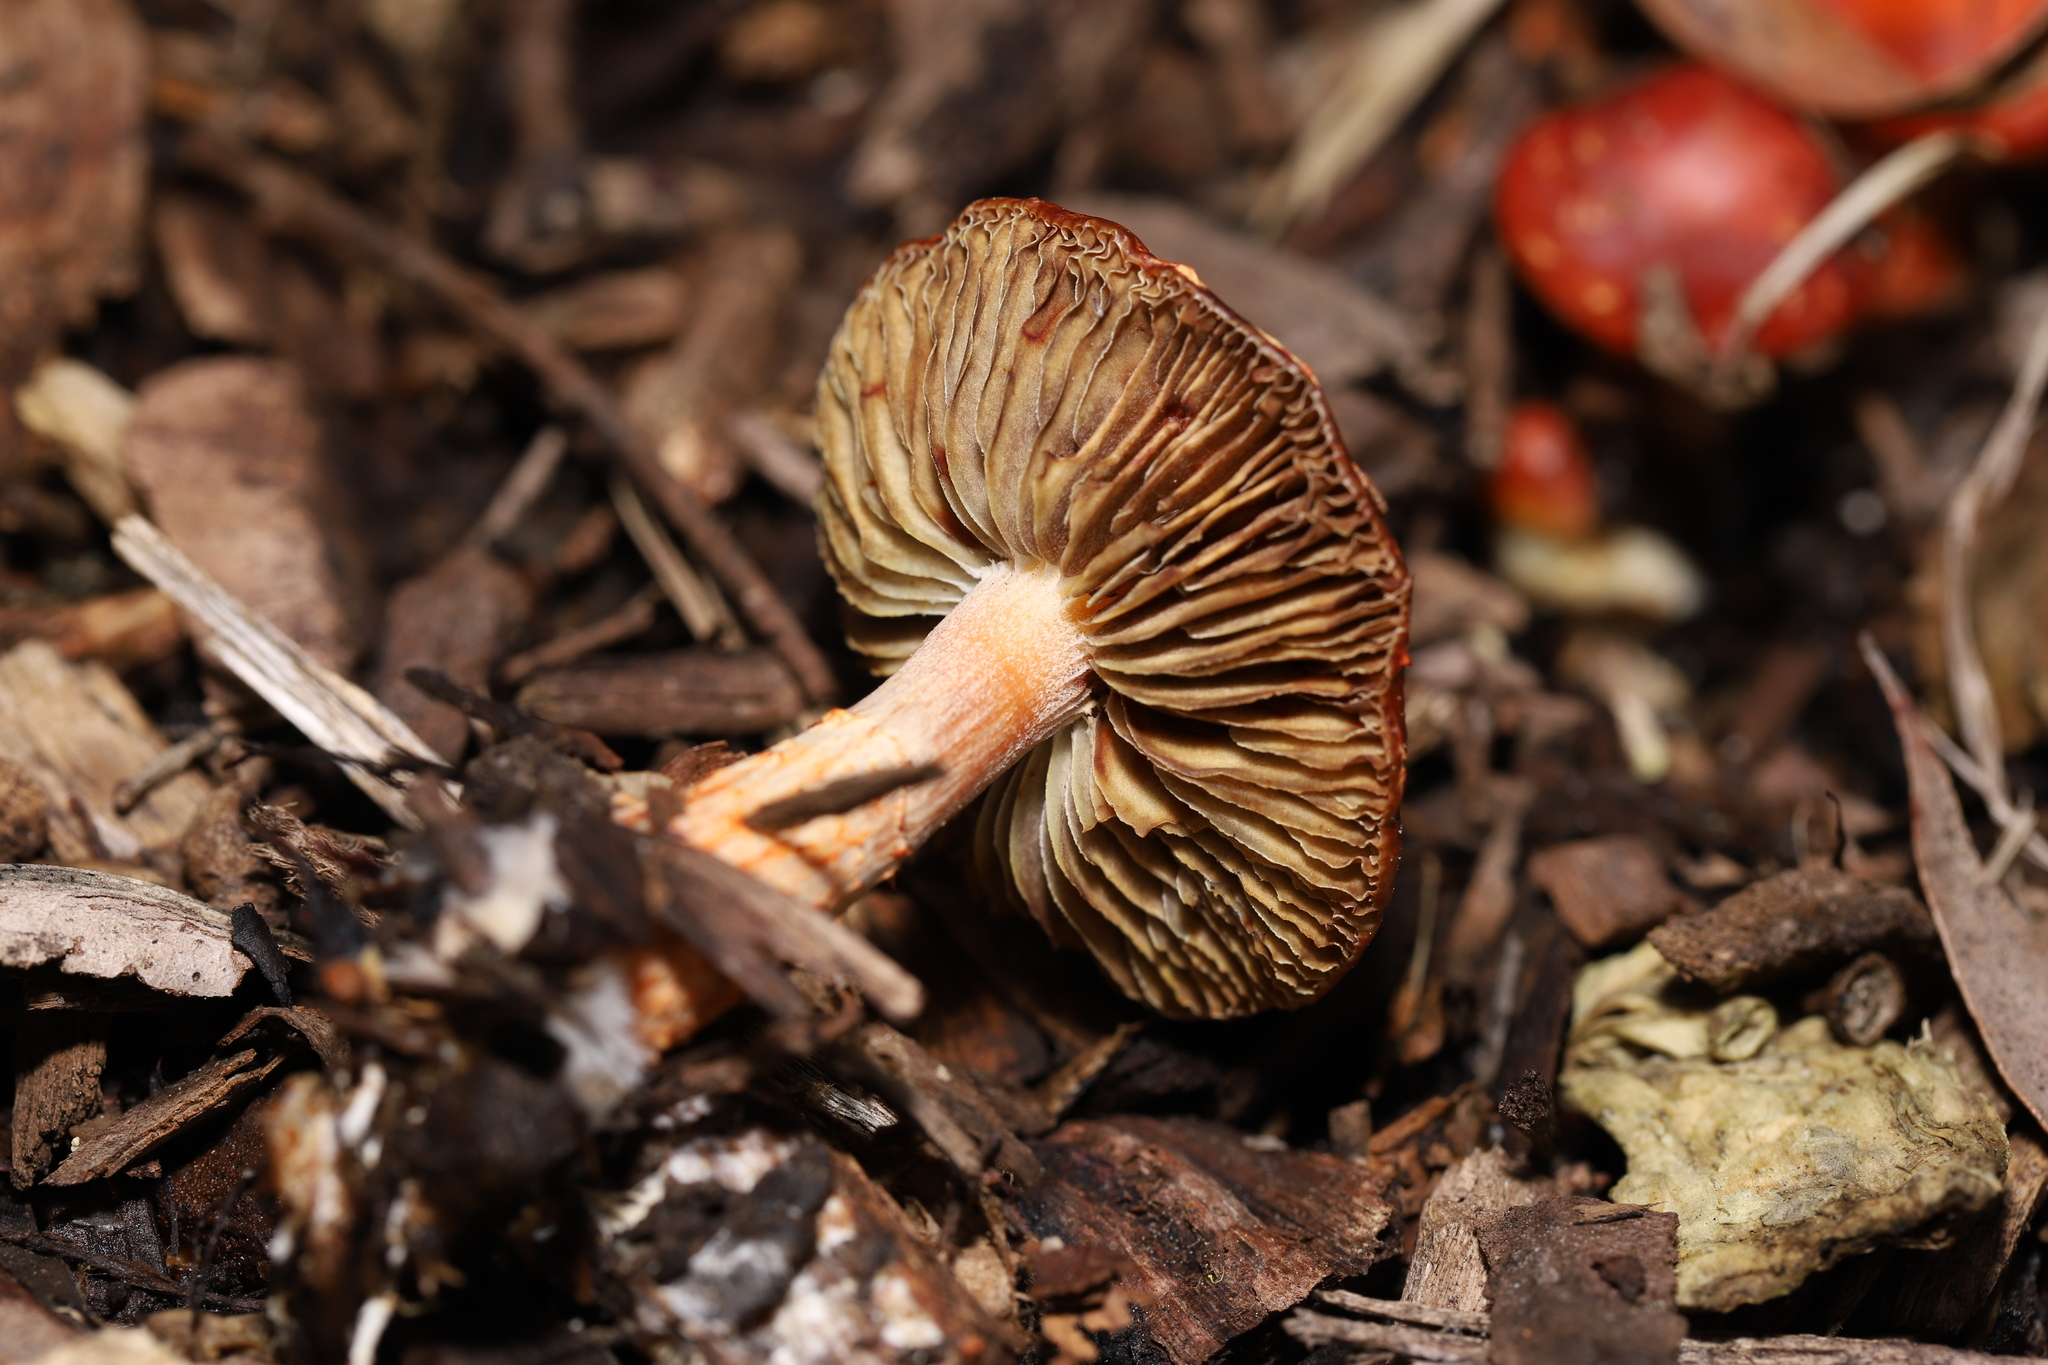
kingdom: Fungi
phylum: Basidiomycota
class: Agaricomycetes
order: Agaricales
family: Strophariaceae
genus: Leratiomyces
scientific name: Leratiomyces ceres
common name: Redlead roundhead
